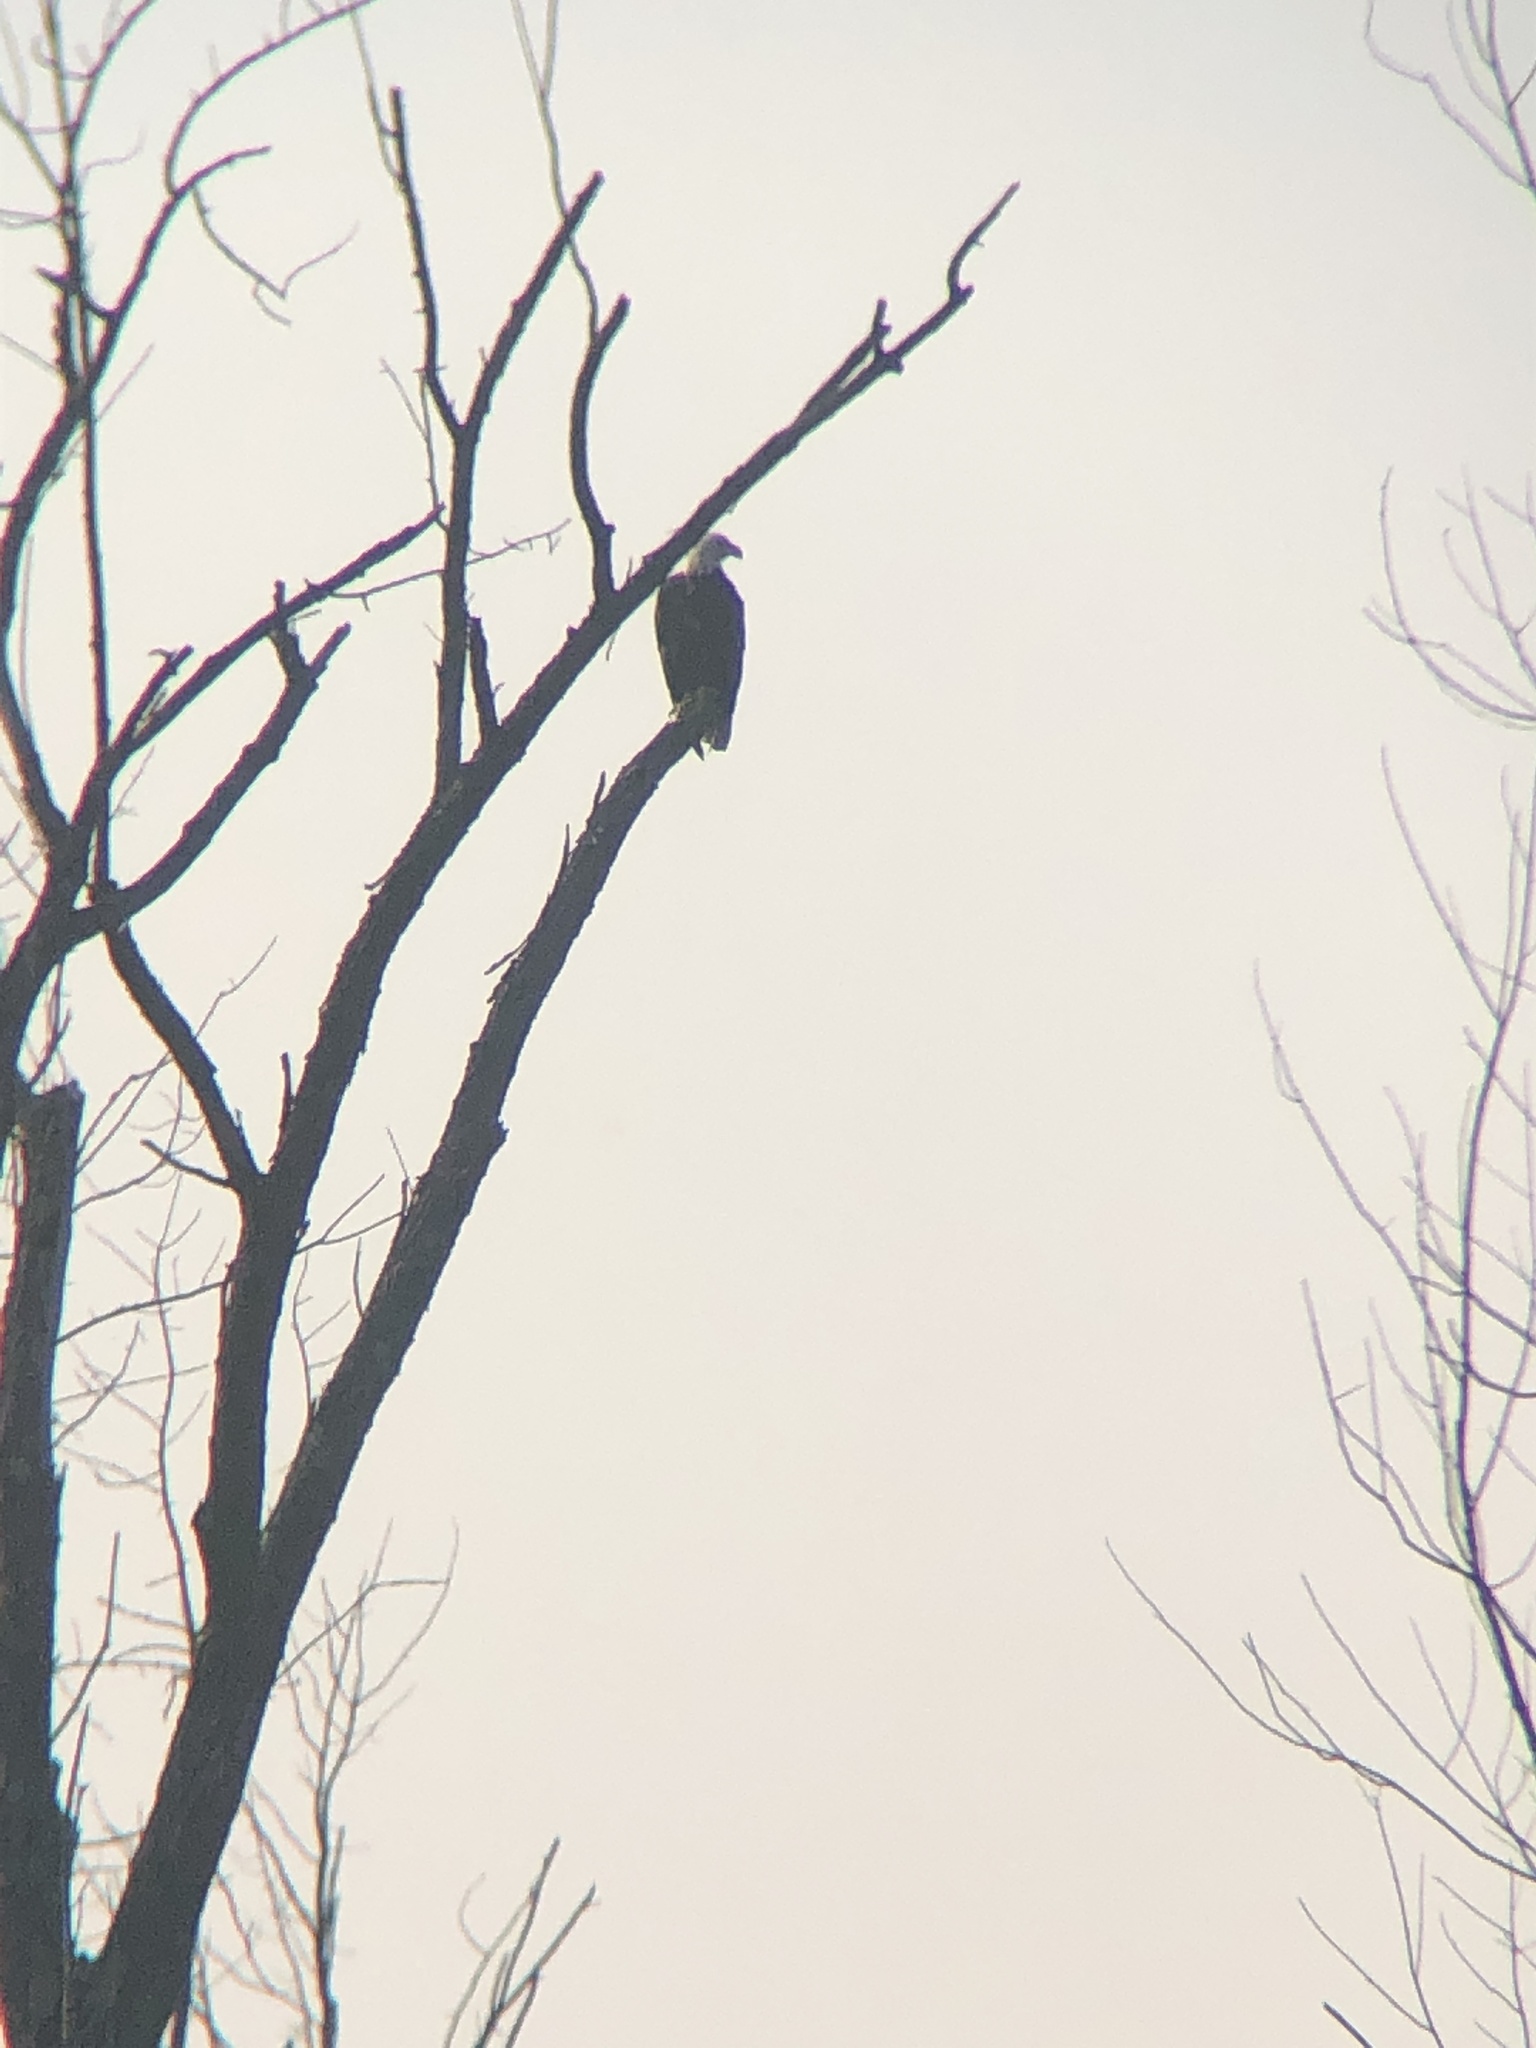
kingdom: Animalia
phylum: Chordata
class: Aves
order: Accipitriformes
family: Accipitridae
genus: Haliaeetus
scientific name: Haliaeetus leucocephalus
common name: Bald eagle
